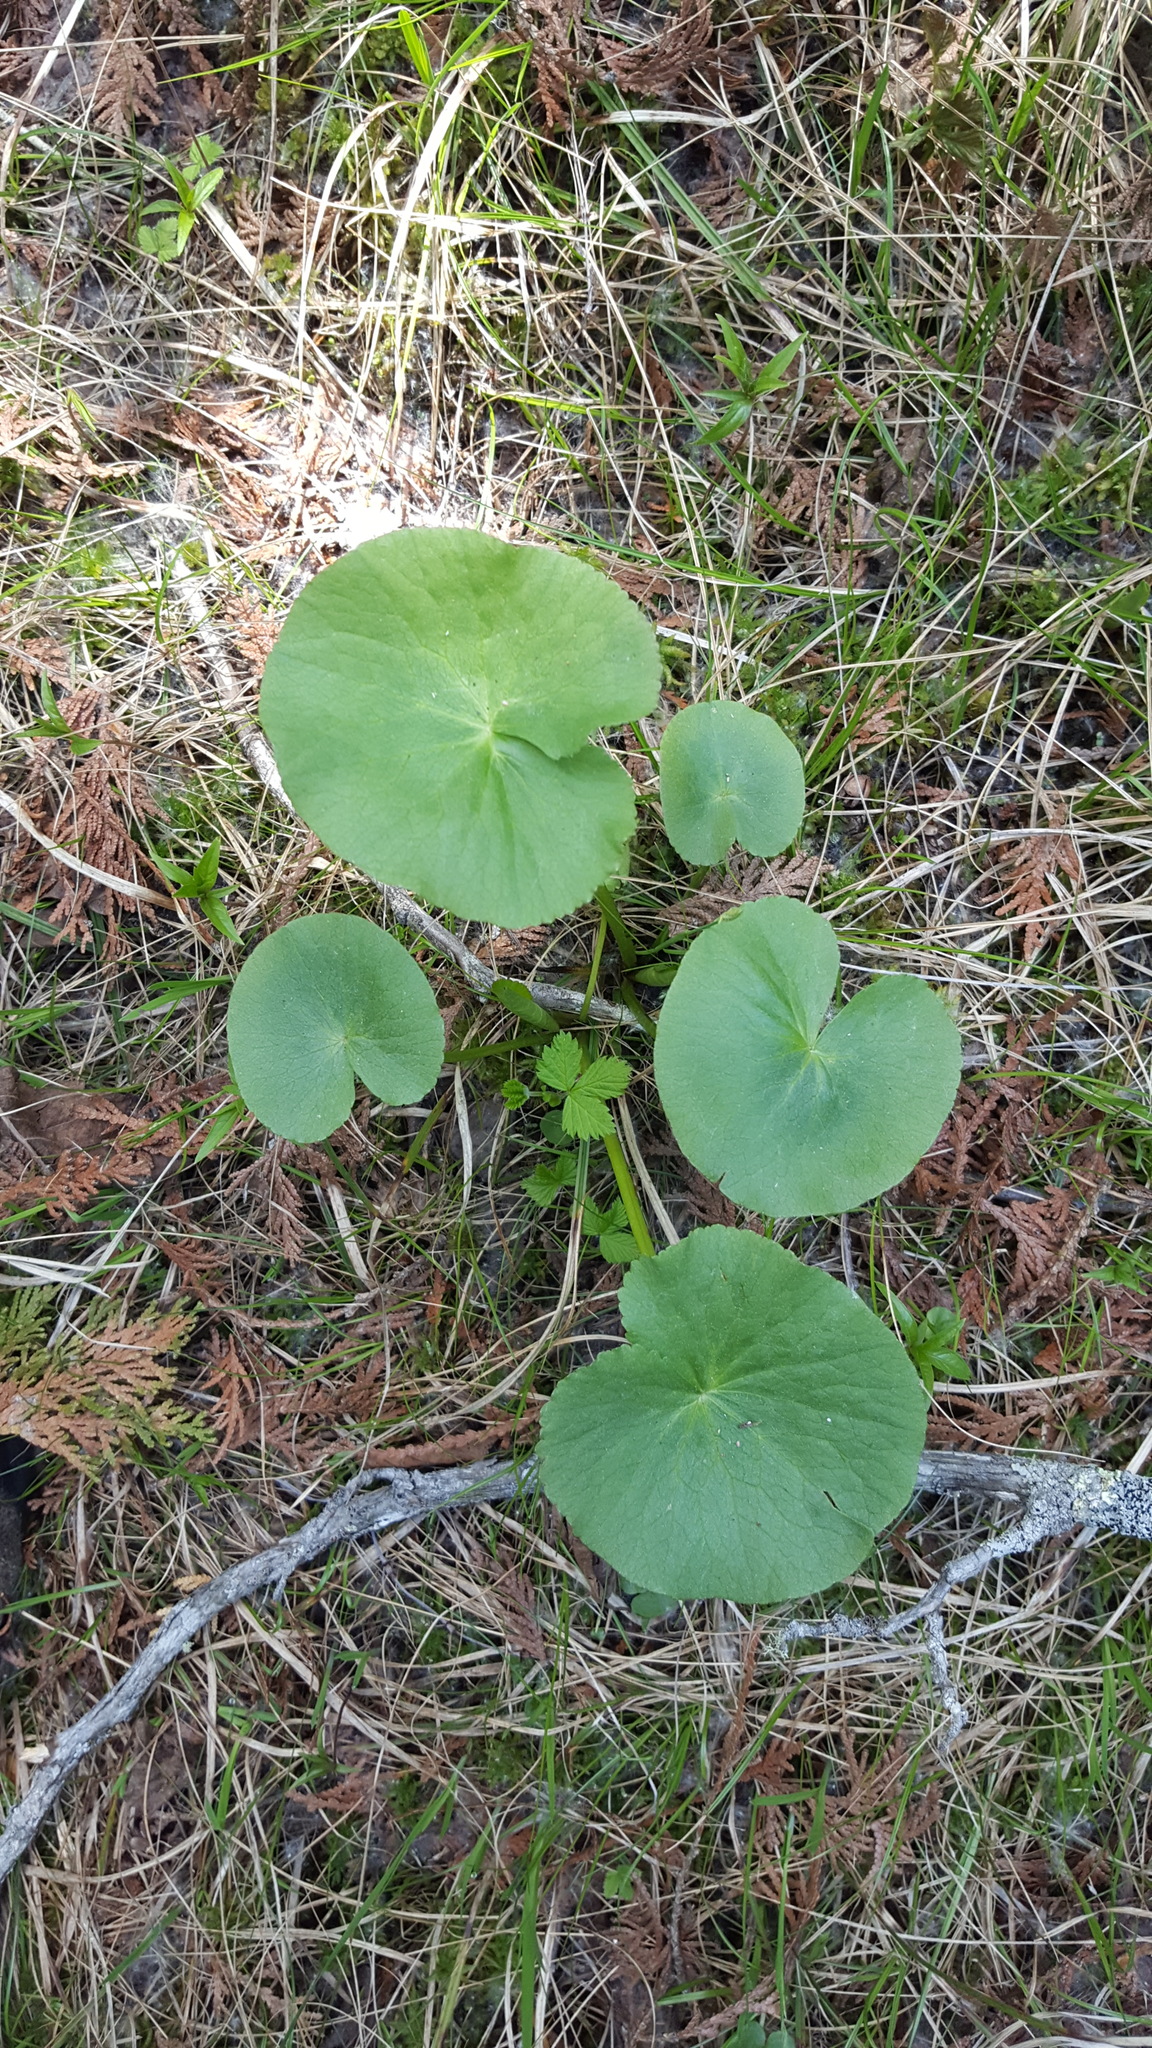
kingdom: Plantae
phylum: Tracheophyta
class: Magnoliopsida
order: Ranunculales
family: Ranunculaceae
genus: Caltha
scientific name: Caltha palustris
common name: Marsh marigold
